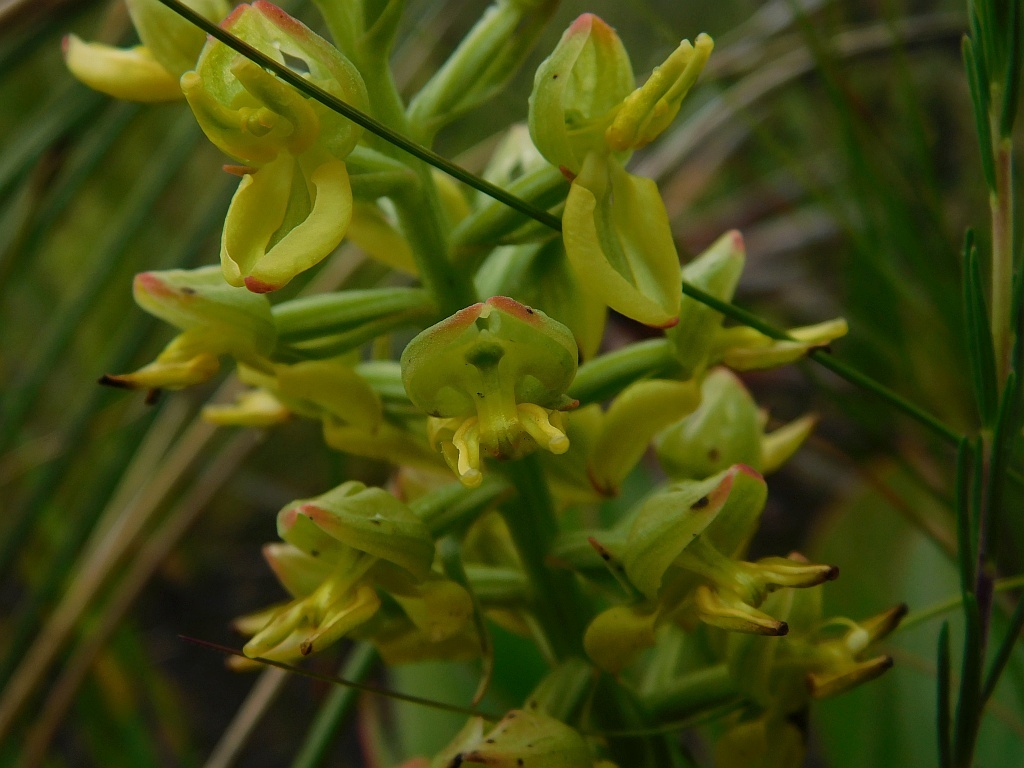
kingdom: Plantae
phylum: Tracheophyta
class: Liliopsida
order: Asparagales
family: Orchidaceae
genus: Ceratandra
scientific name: Ceratandra atrata
